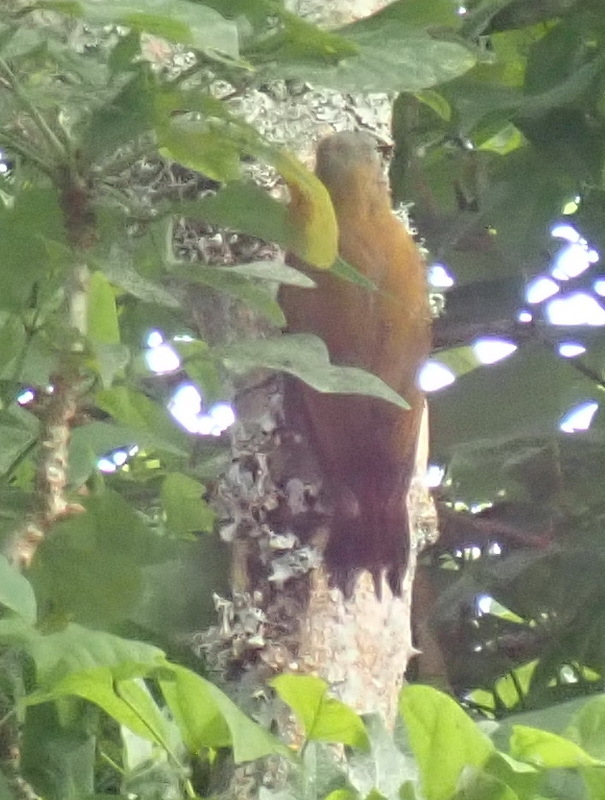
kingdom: Animalia
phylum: Chordata
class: Aves
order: Piciformes
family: Picidae
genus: Dendropicos
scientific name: Dendropicos griseocephalus
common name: Olive woodpecker
